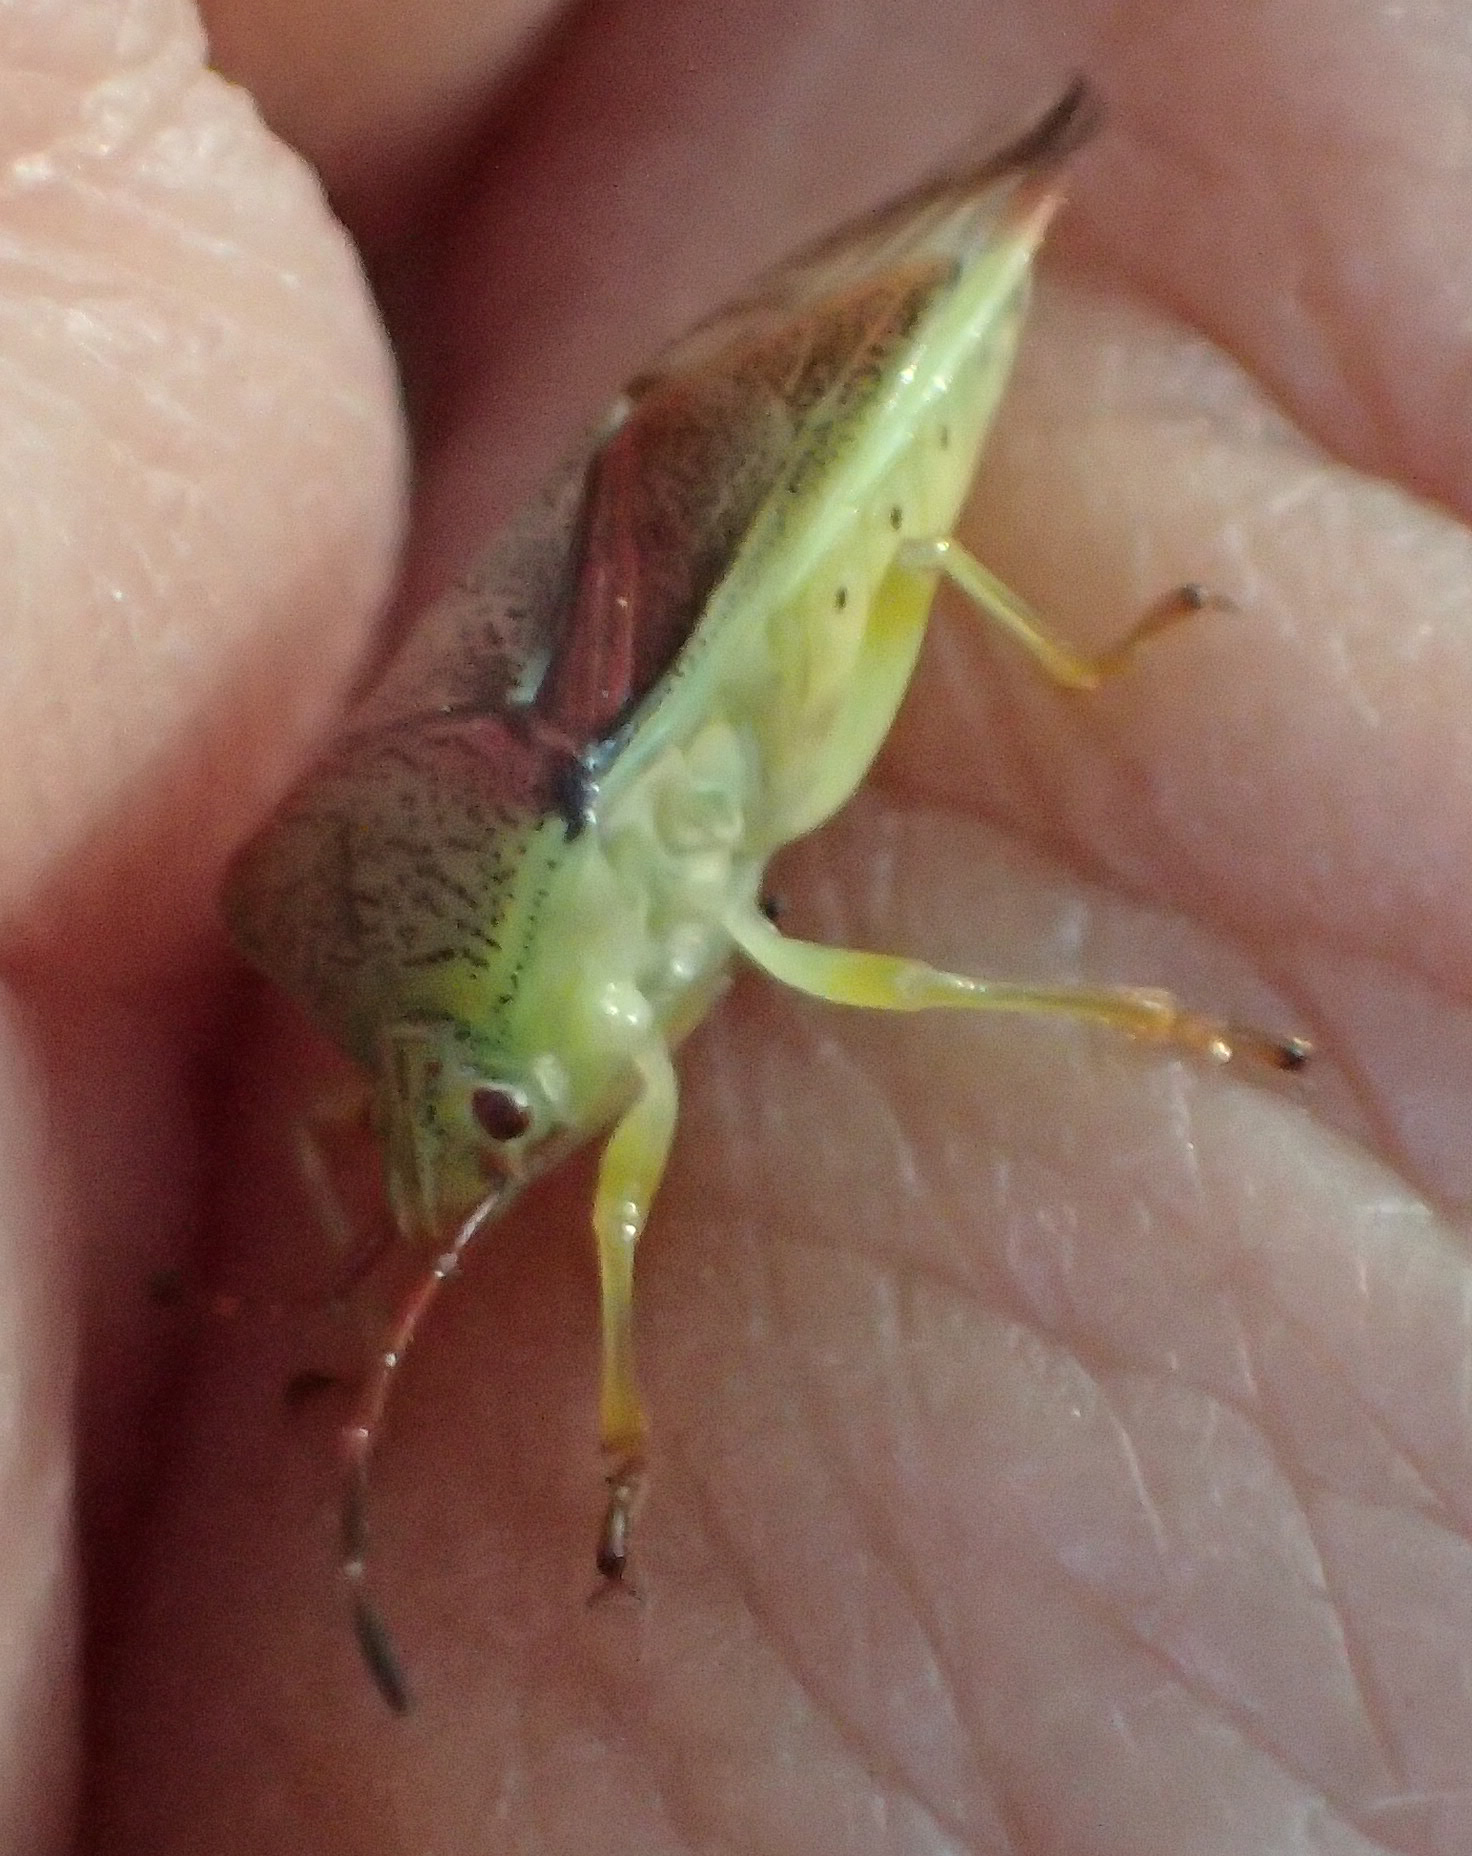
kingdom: Animalia
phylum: Arthropoda
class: Insecta
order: Hemiptera
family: Acanthosomatidae
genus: Elasmostethus
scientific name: Elasmostethus interstinctus
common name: Birch shieldbug
